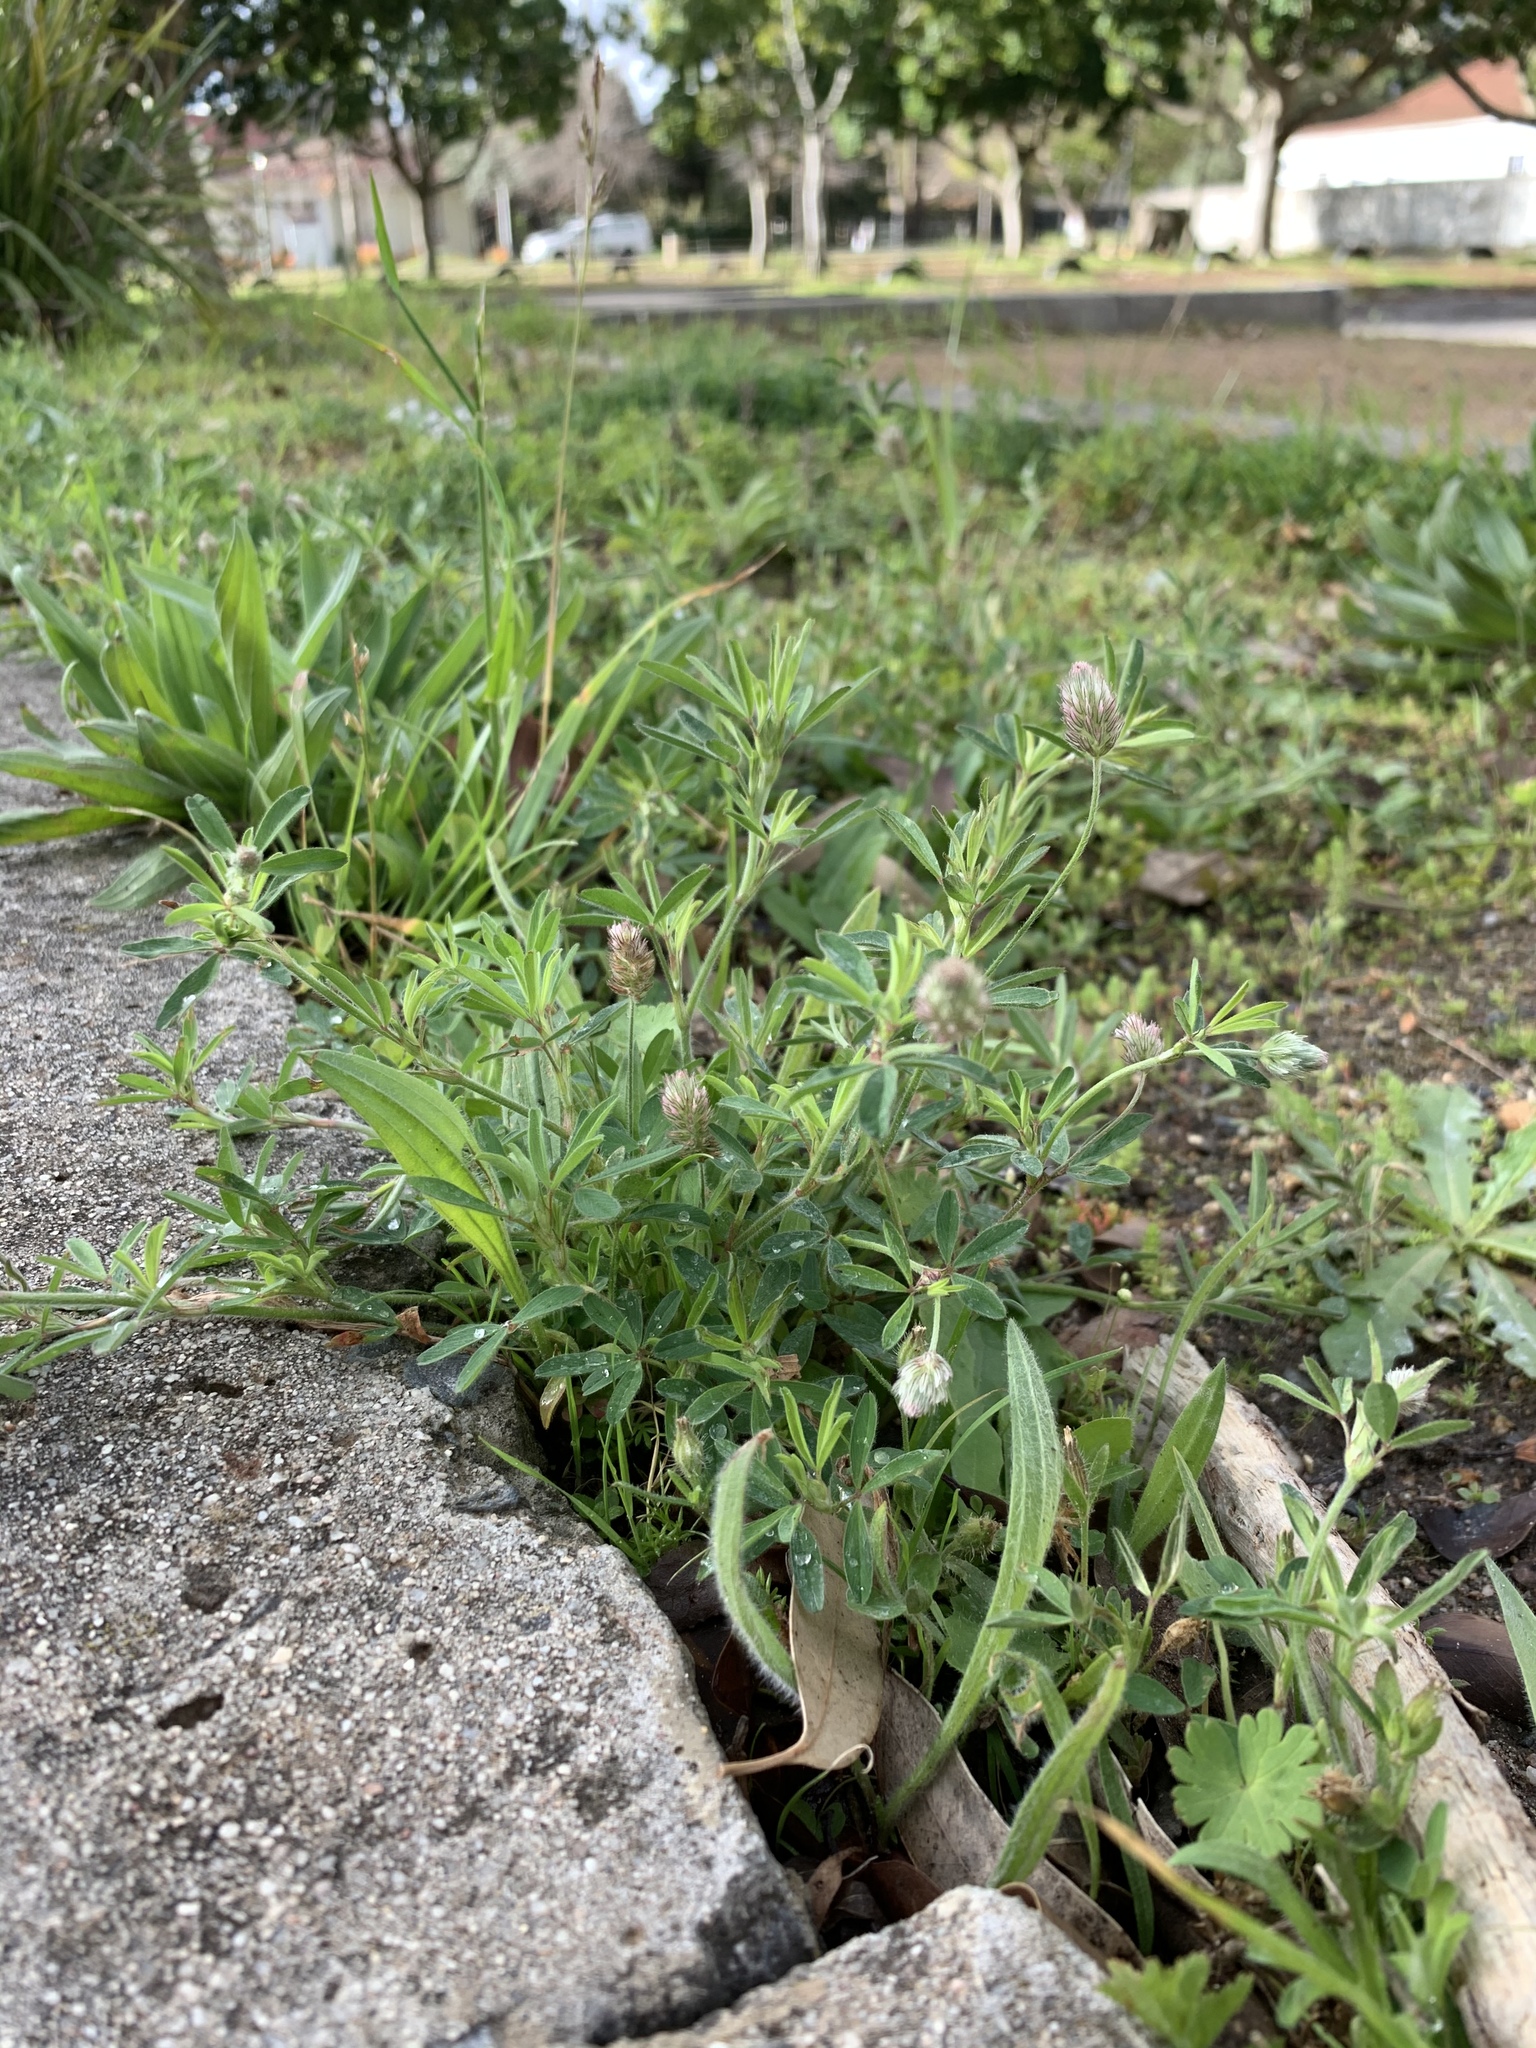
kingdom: Plantae
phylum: Tracheophyta
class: Magnoliopsida
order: Fabales
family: Fabaceae
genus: Trifolium
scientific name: Trifolium arvense
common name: Hare's-foot clover
